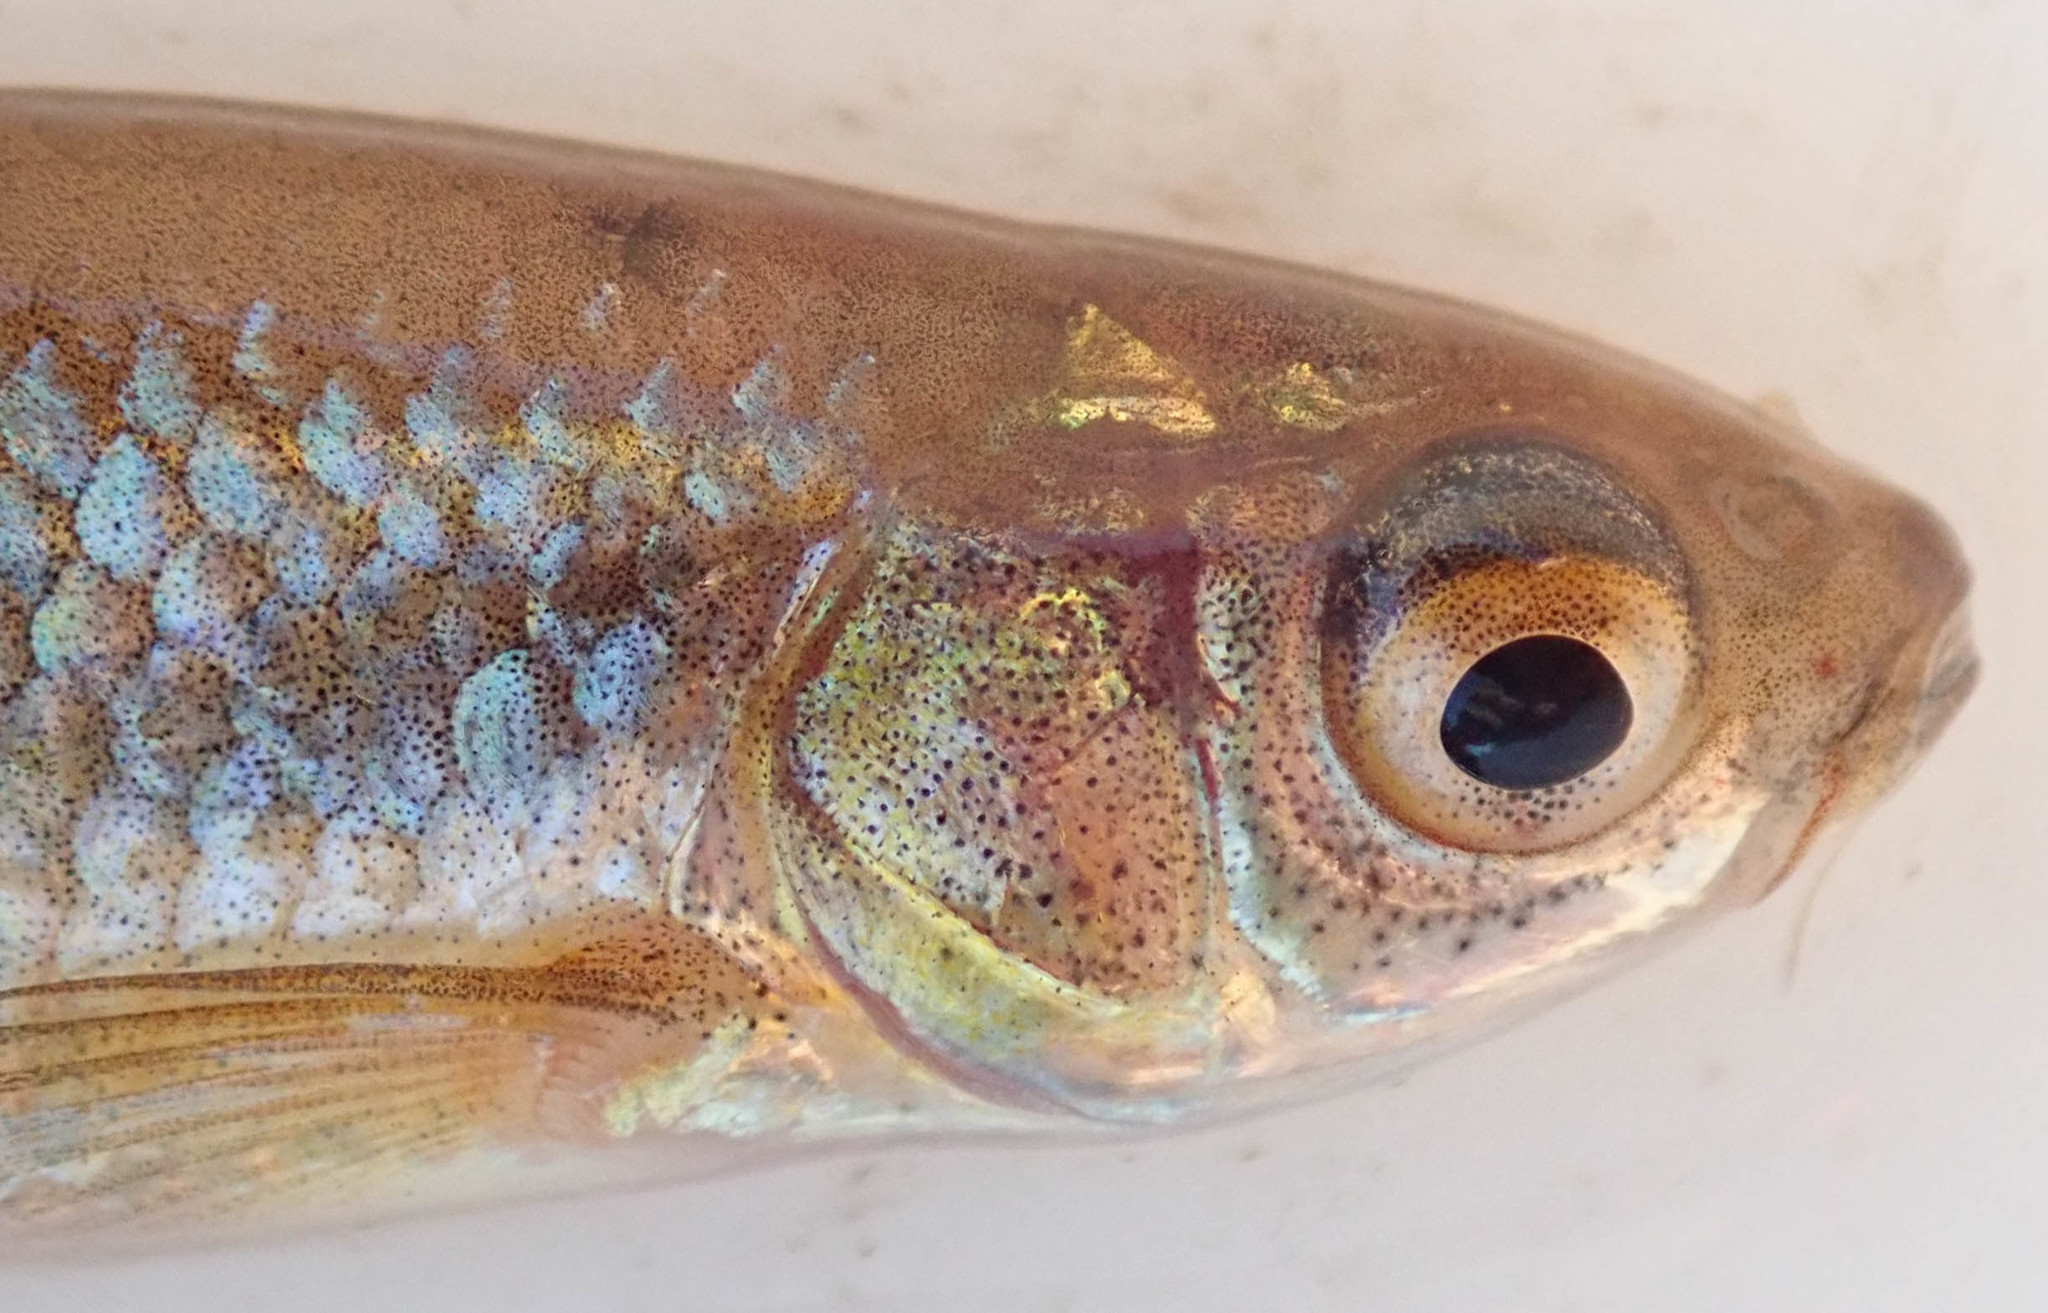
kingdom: Animalia
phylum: Chordata
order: Cypriniformes
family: Cyprinidae
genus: Enteromius
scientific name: Enteromius paludinosus
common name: Straightfin barb
